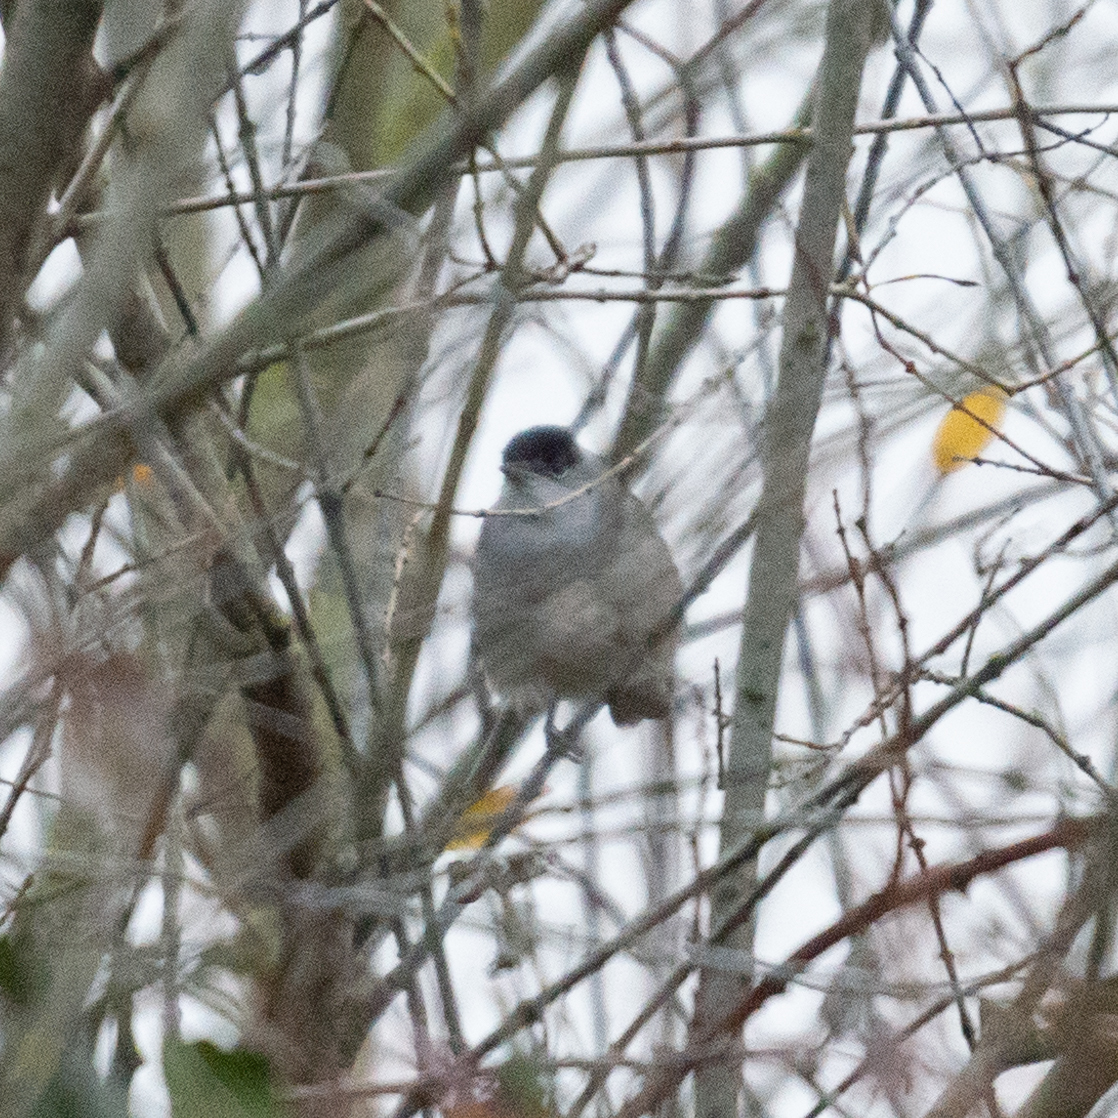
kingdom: Animalia
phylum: Chordata
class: Aves
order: Passeriformes
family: Sylviidae
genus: Sylvia
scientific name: Sylvia atricapilla
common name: Eurasian blackcap
